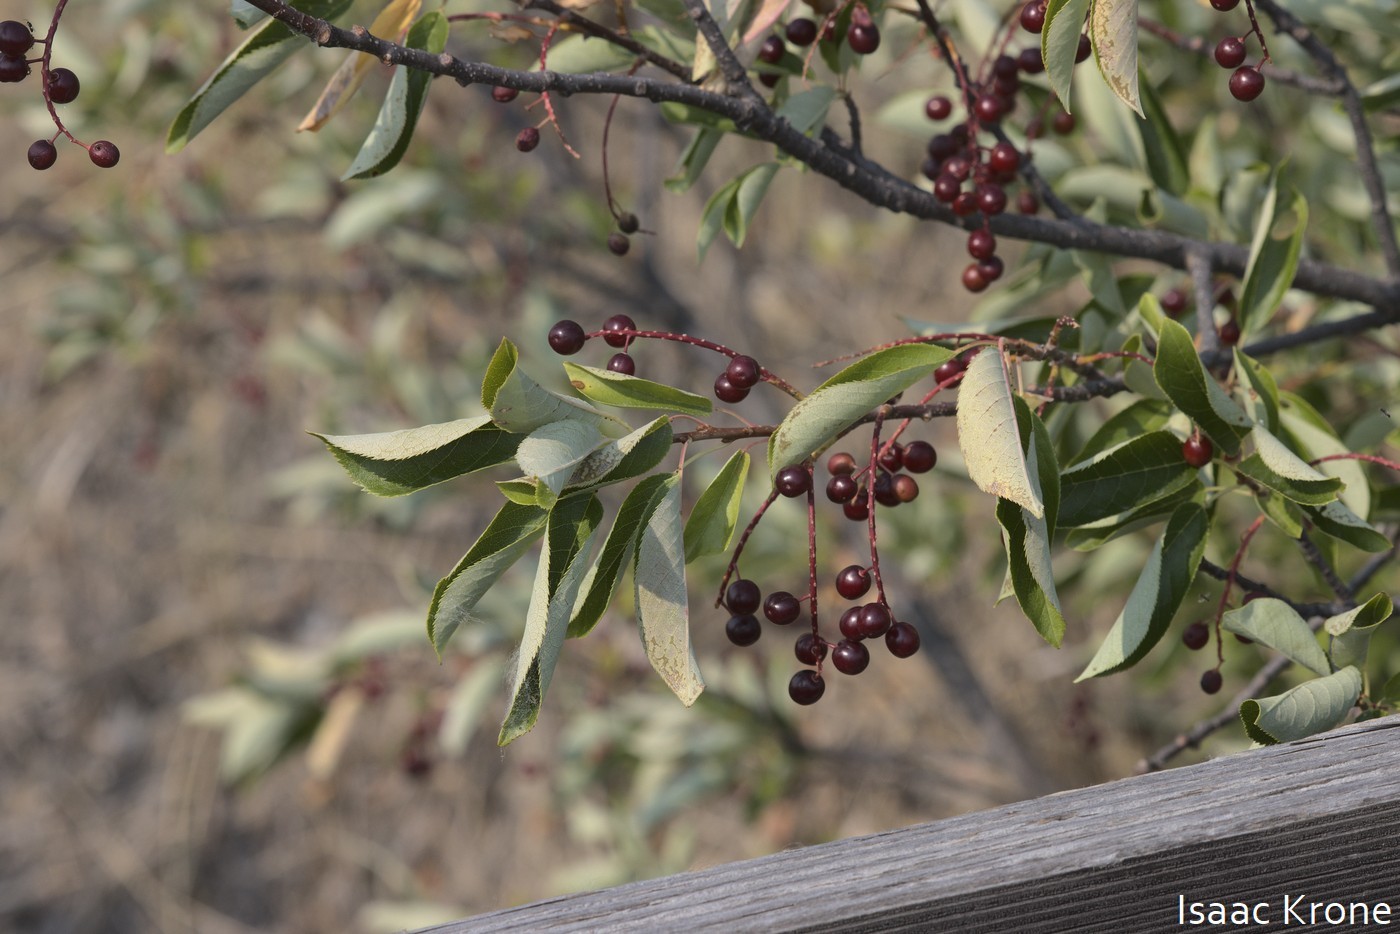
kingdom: Plantae
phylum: Tracheophyta
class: Magnoliopsida
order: Rosales
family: Rosaceae
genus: Prunus
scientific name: Prunus virginiana
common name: Chokecherry
